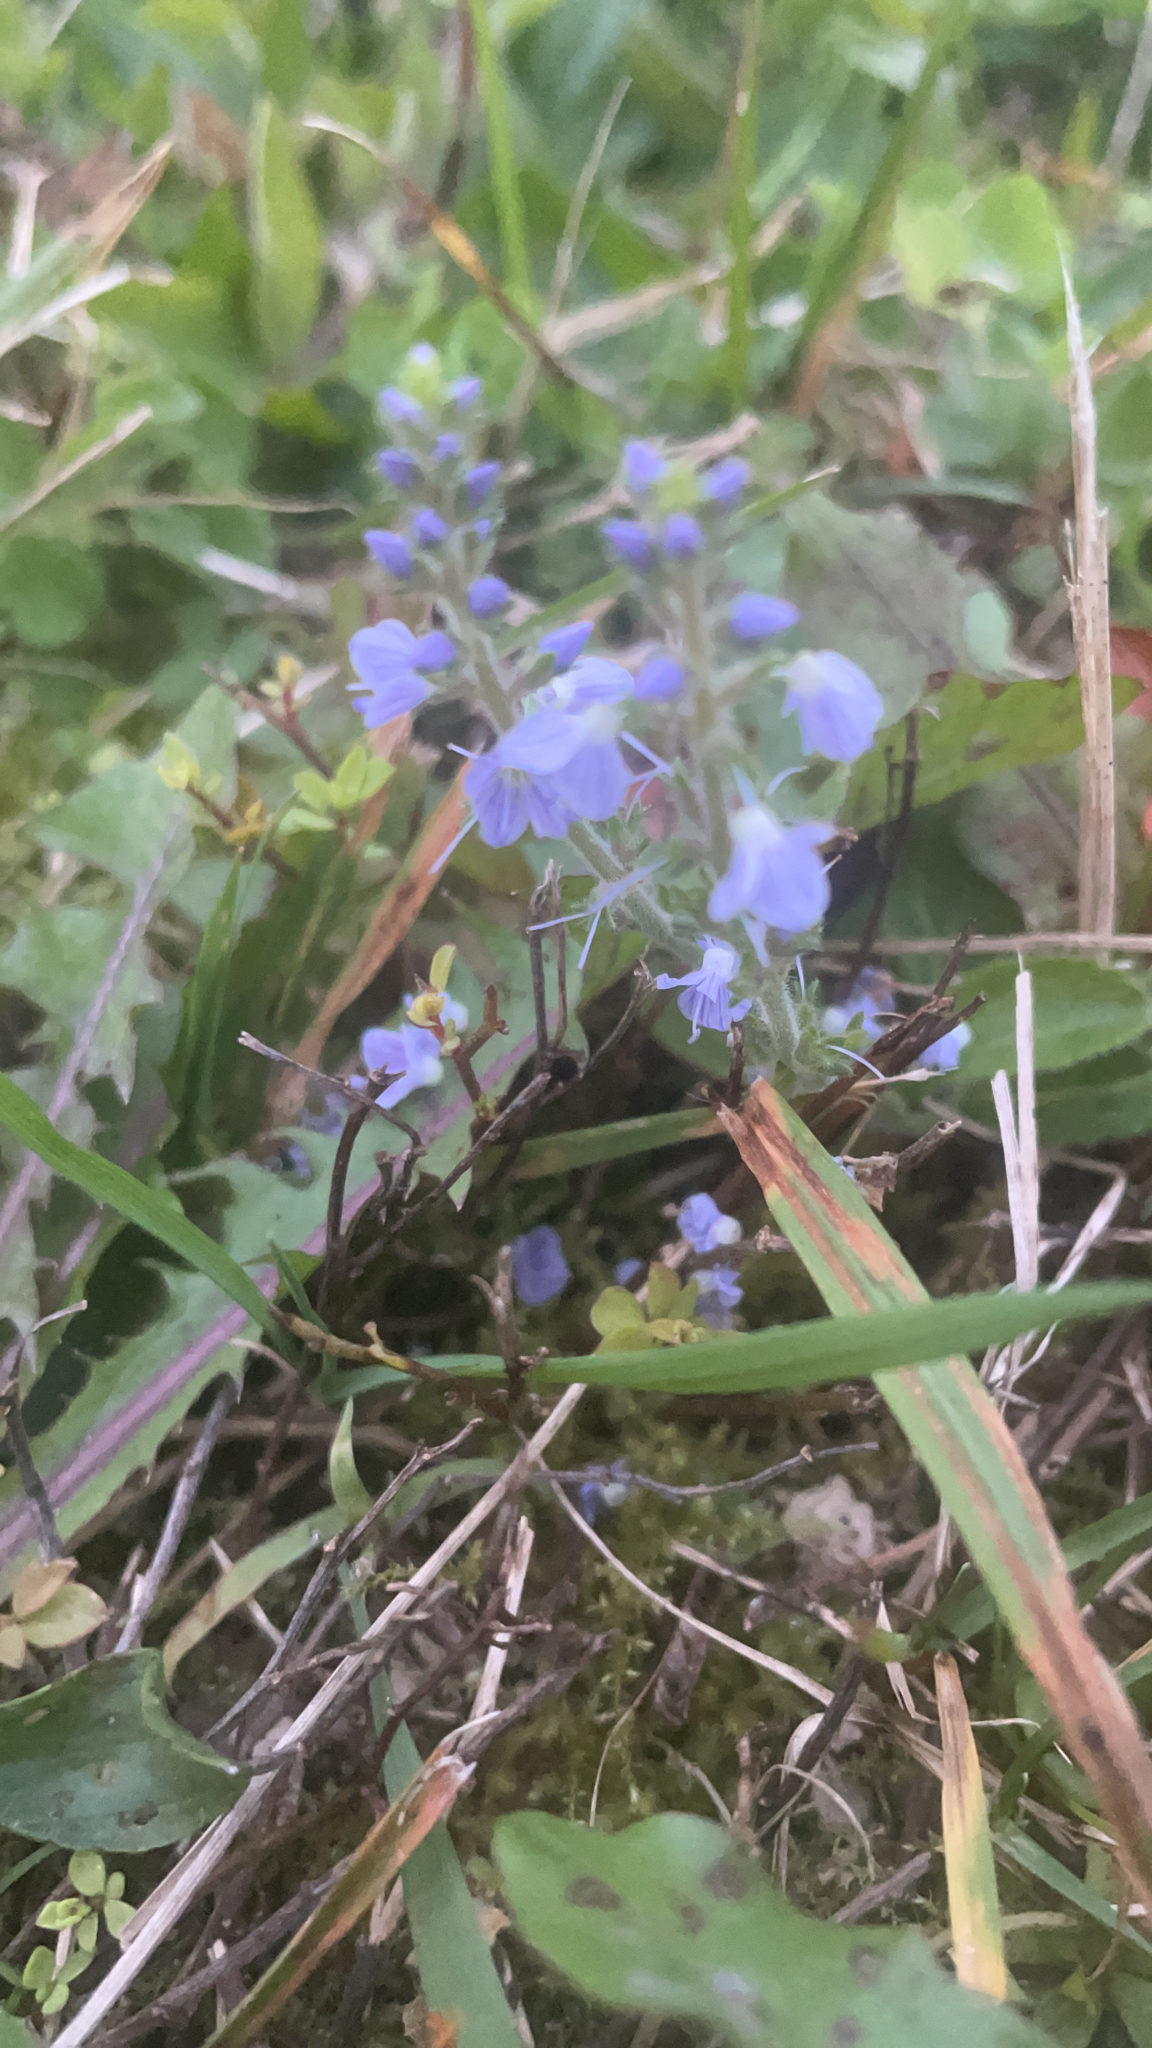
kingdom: Plantae
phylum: Tracheophyta
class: Magnoliopsida
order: Lamiales
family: Plantaginaceae
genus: Veronica
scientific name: Veronica officinalis
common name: Common speedwell
